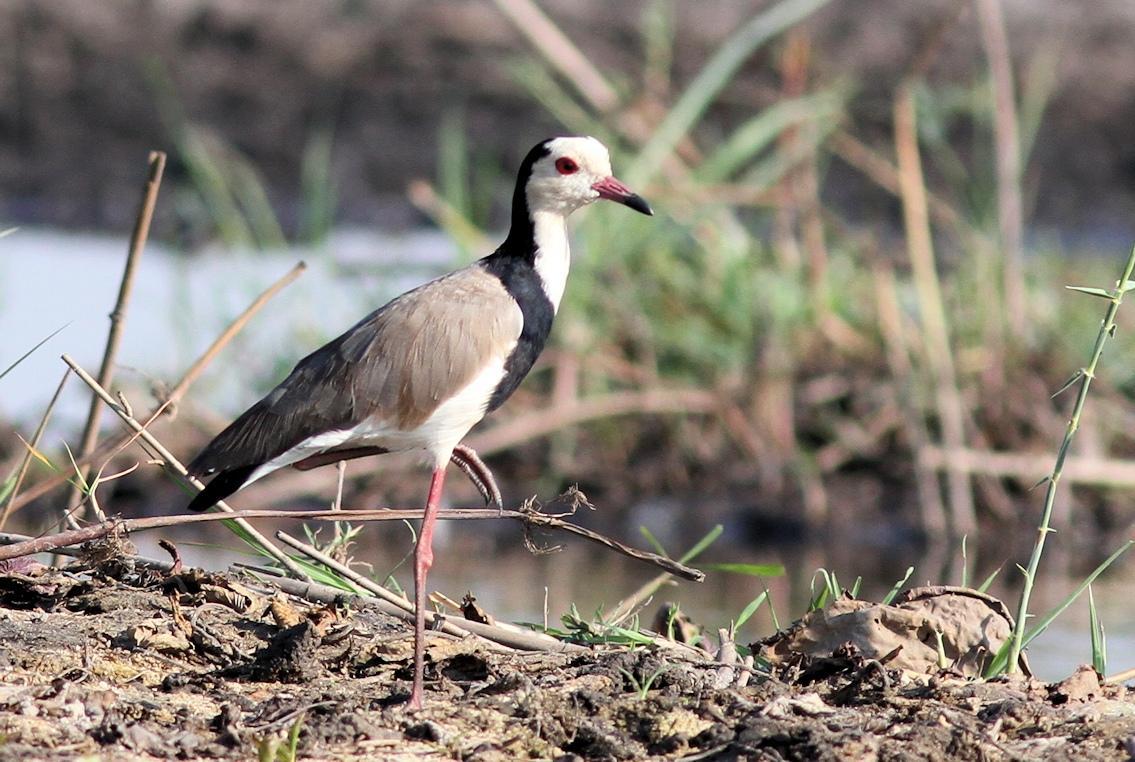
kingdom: Animalia
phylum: Chordata
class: Aves
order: Charadriiformes
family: Charadriidae
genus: Vanellus
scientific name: Vanellus crassirostris
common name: Long-toed lapwing
